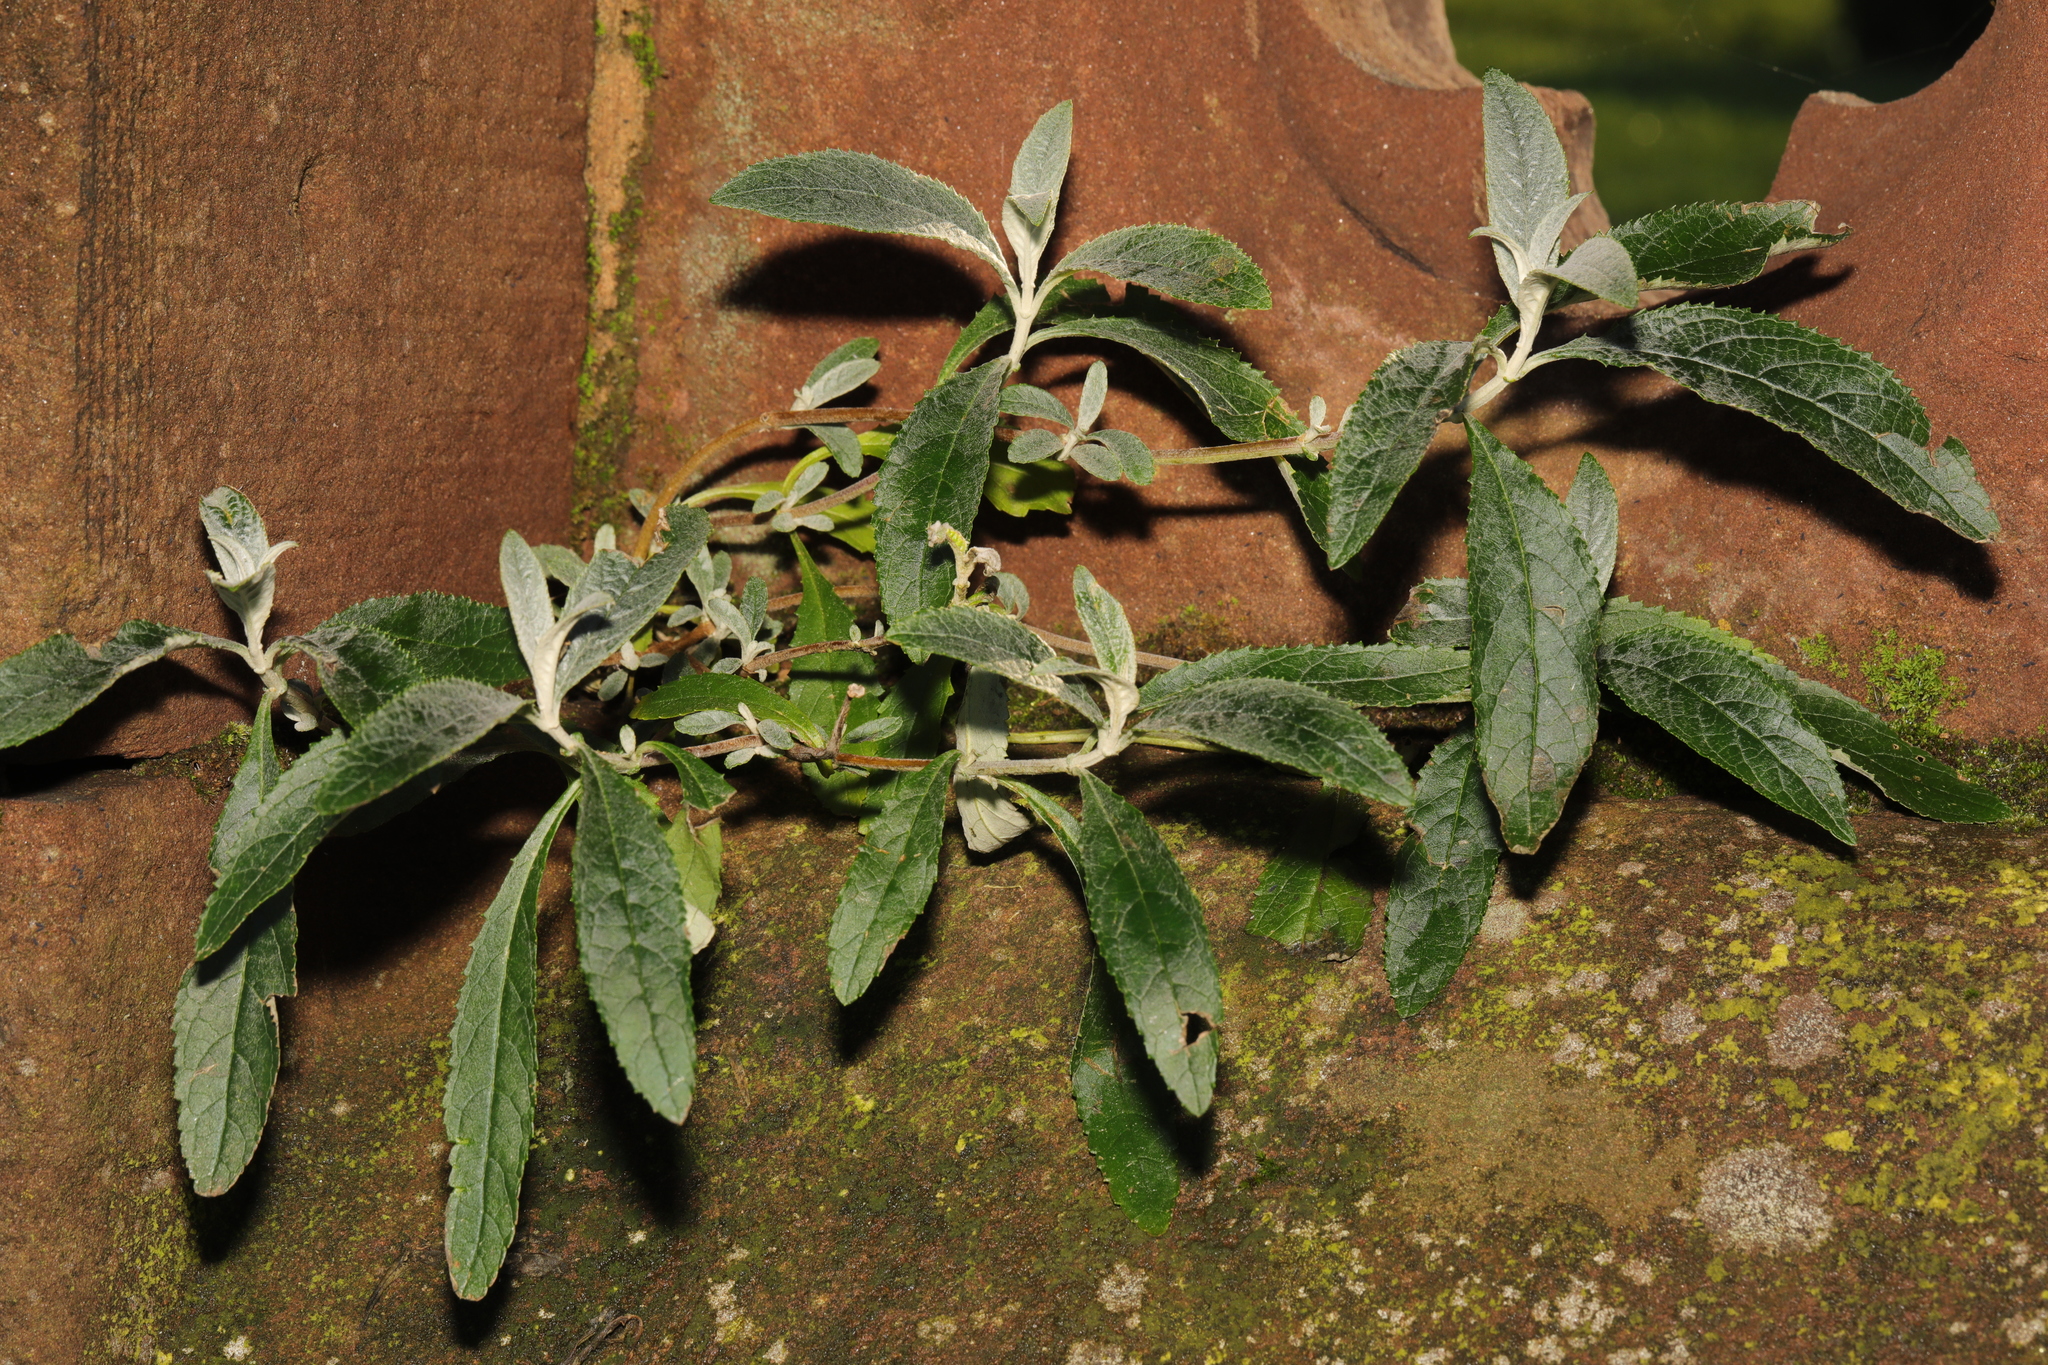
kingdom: Plantae
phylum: Tracheophyta
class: Magnoliopsida
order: Lamiales
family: Scrophulariaceae
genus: Buddleja
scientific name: Buddleja davidii
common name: Butterfly-bush
